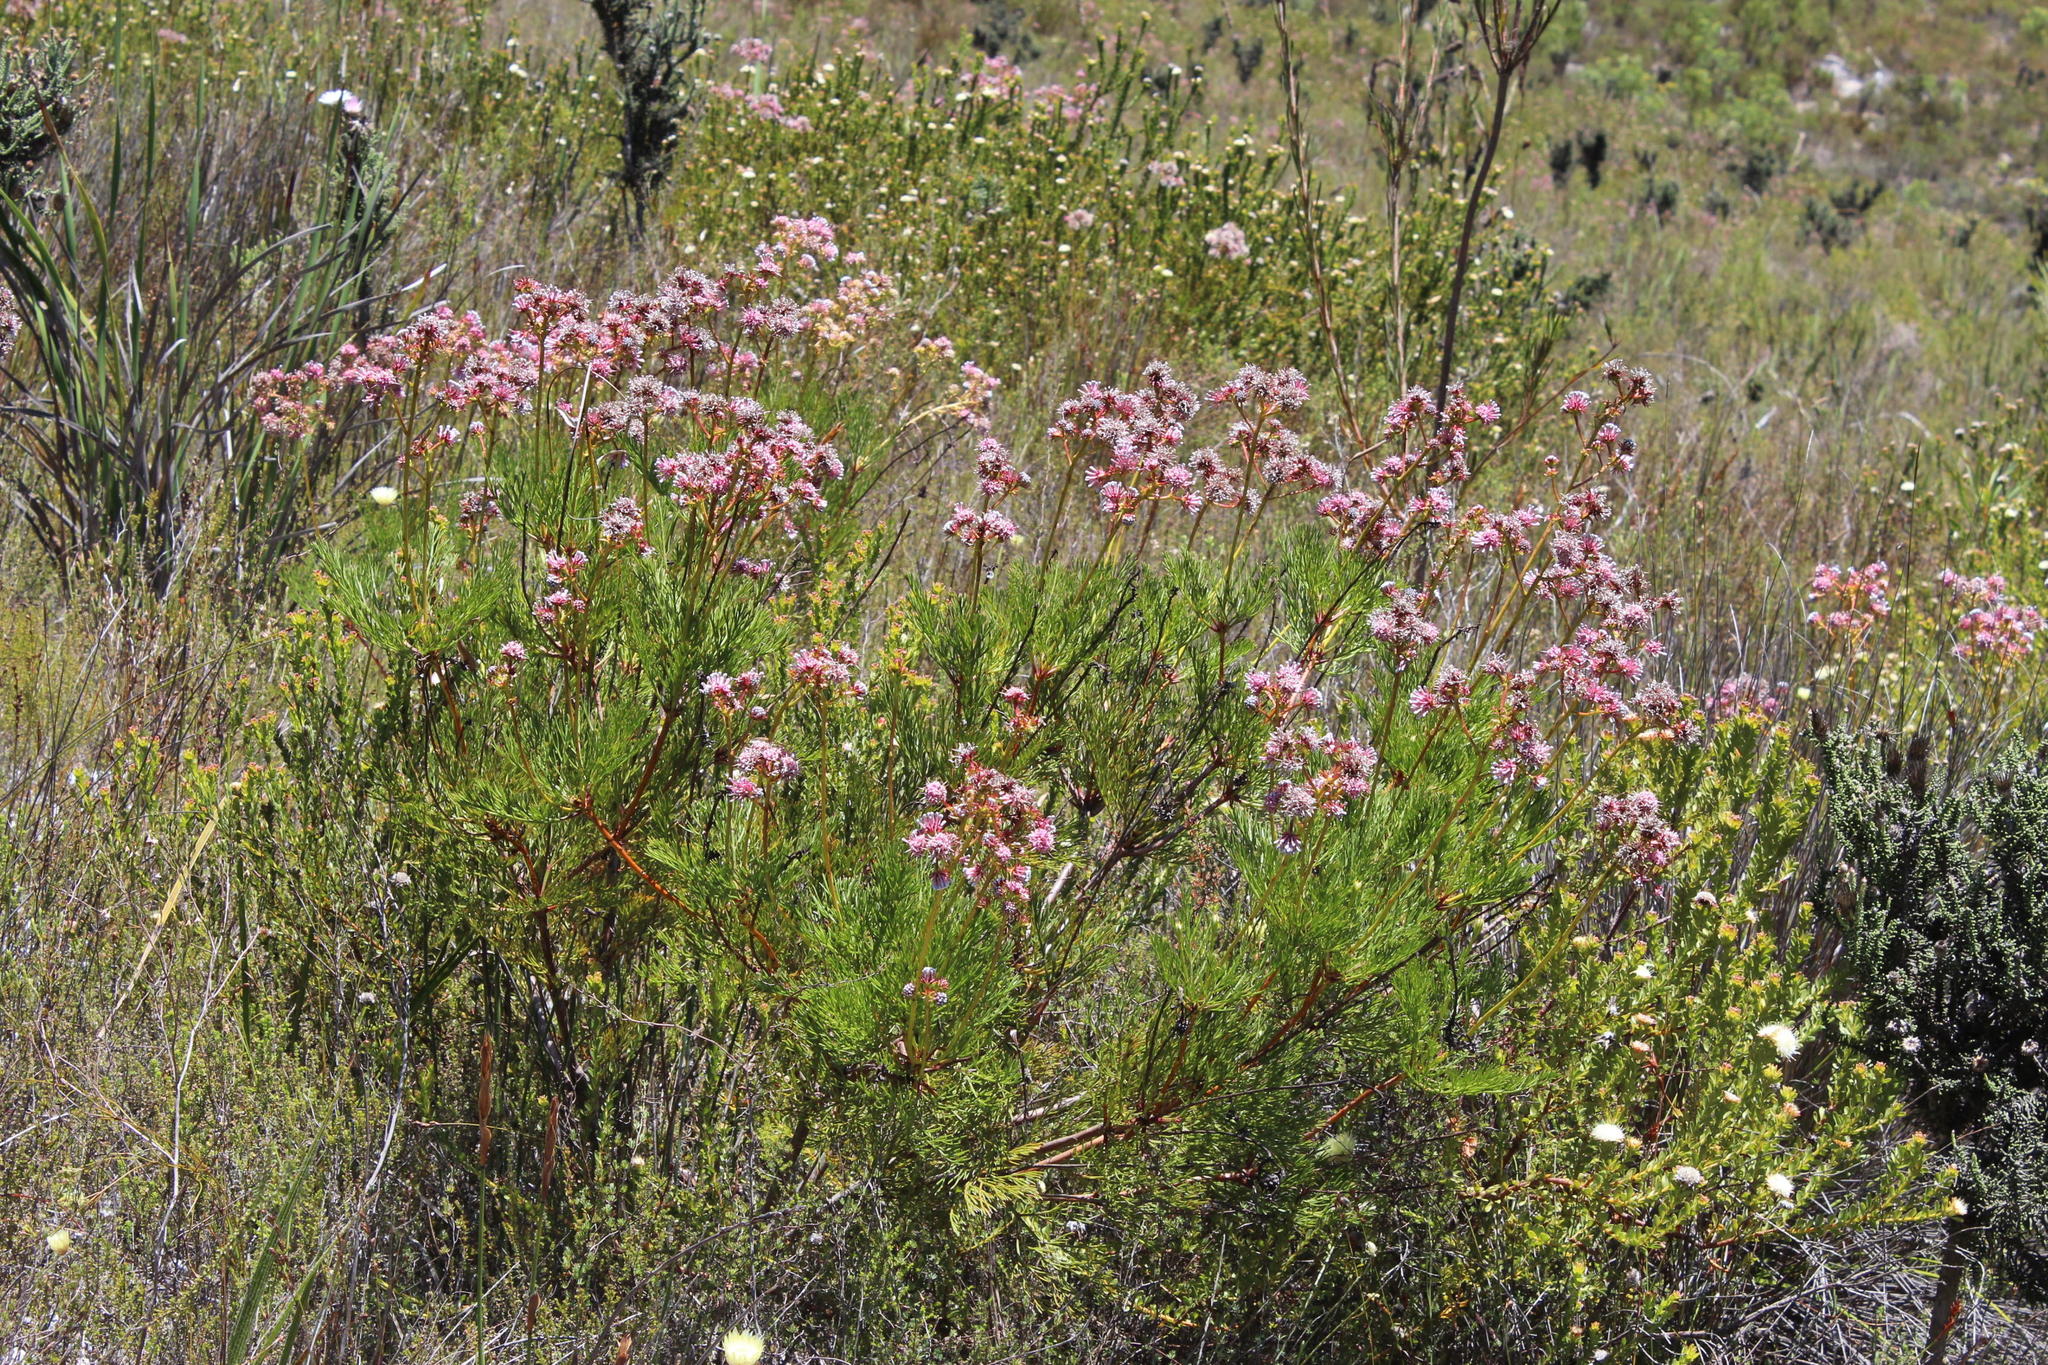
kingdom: Plantae
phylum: Tracheophyta
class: Magnoliopsida
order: Proteales
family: Proteaceae
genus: Serruria
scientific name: Serruria elongata
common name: Long-stalk spiderhead
